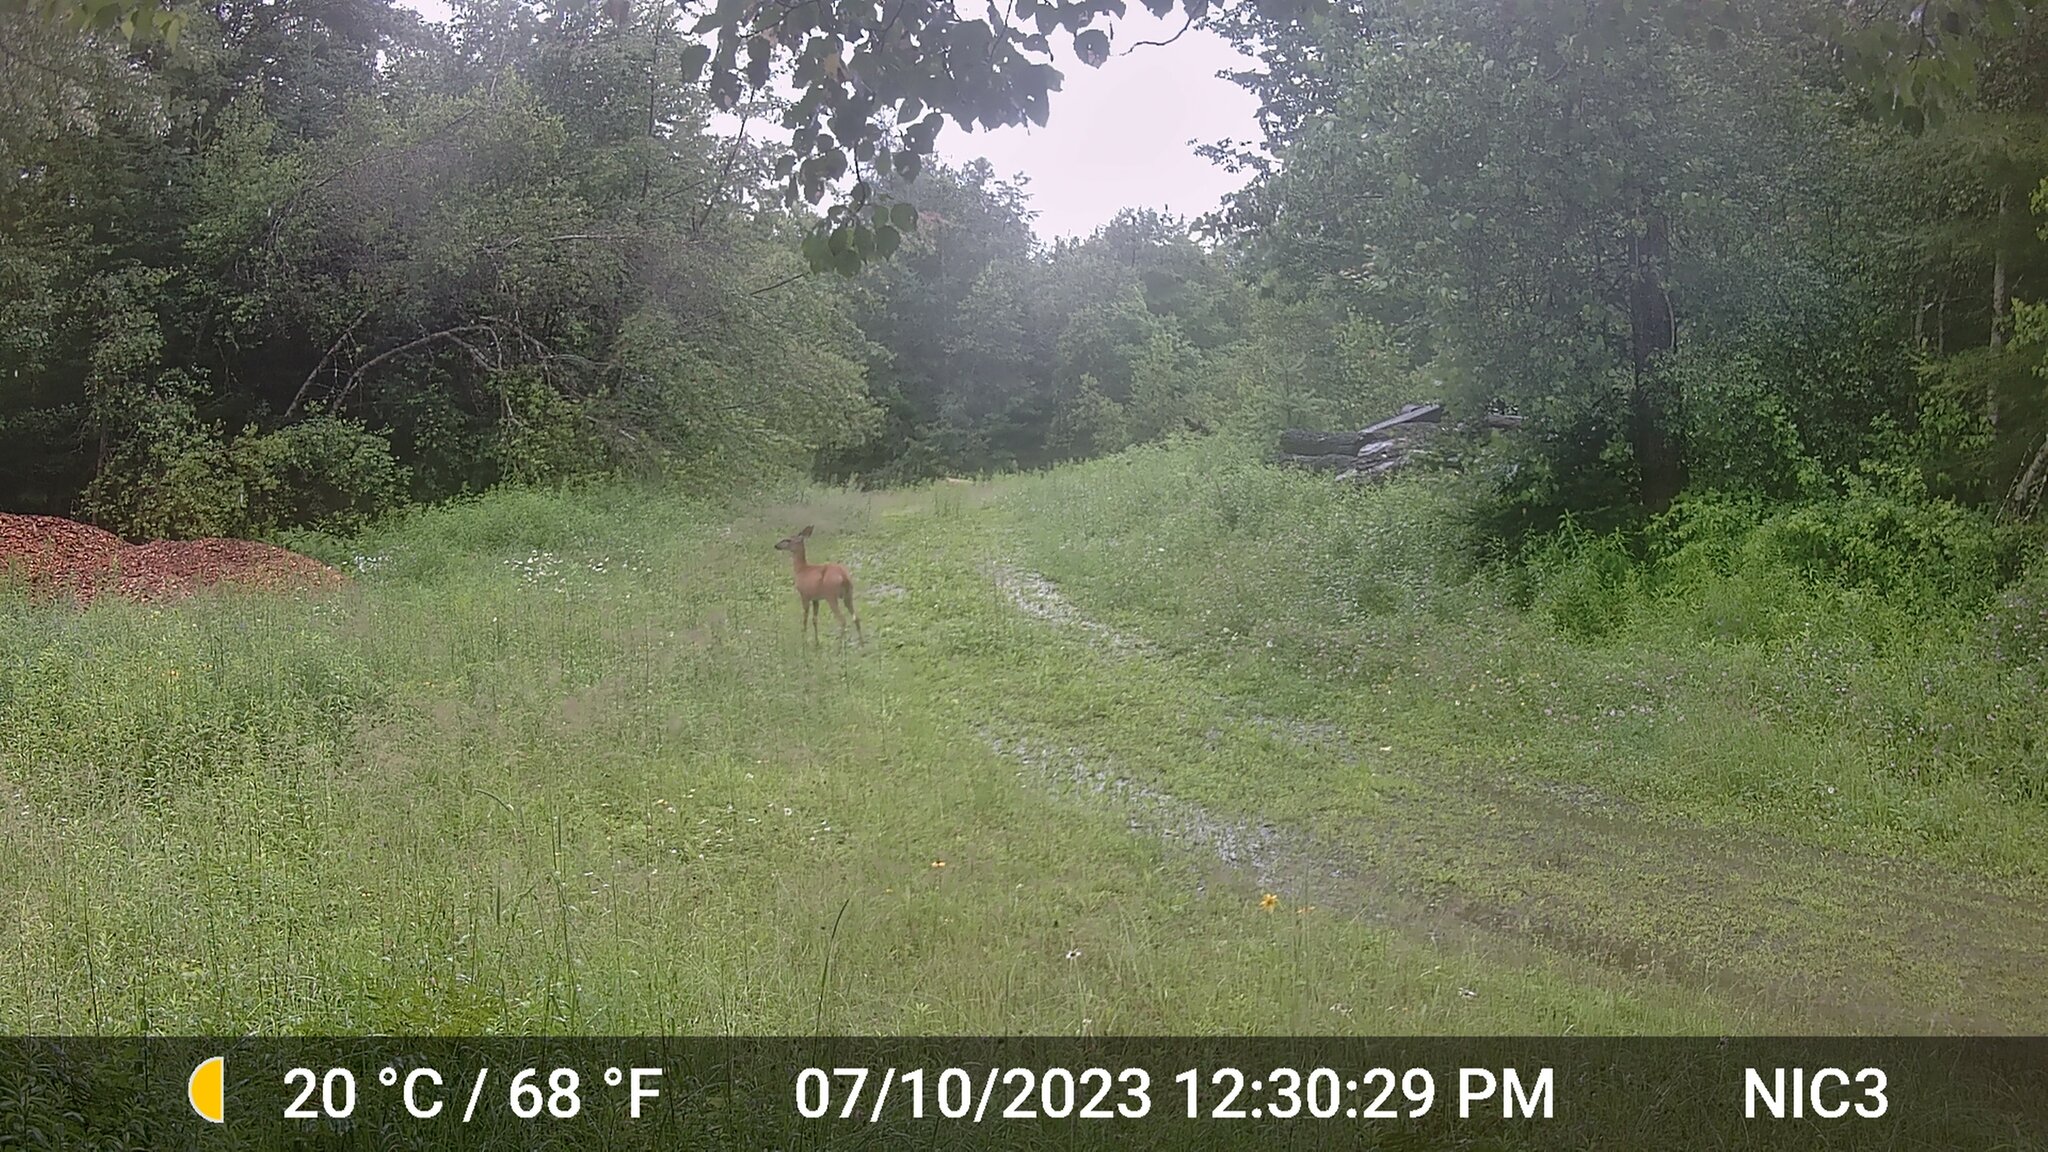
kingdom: Animalia
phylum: Chordata
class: Mammalia
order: Artiodactyla
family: Cervidae
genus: Odocoileus
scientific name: Odocoileus virginianus
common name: White-tailed deer
